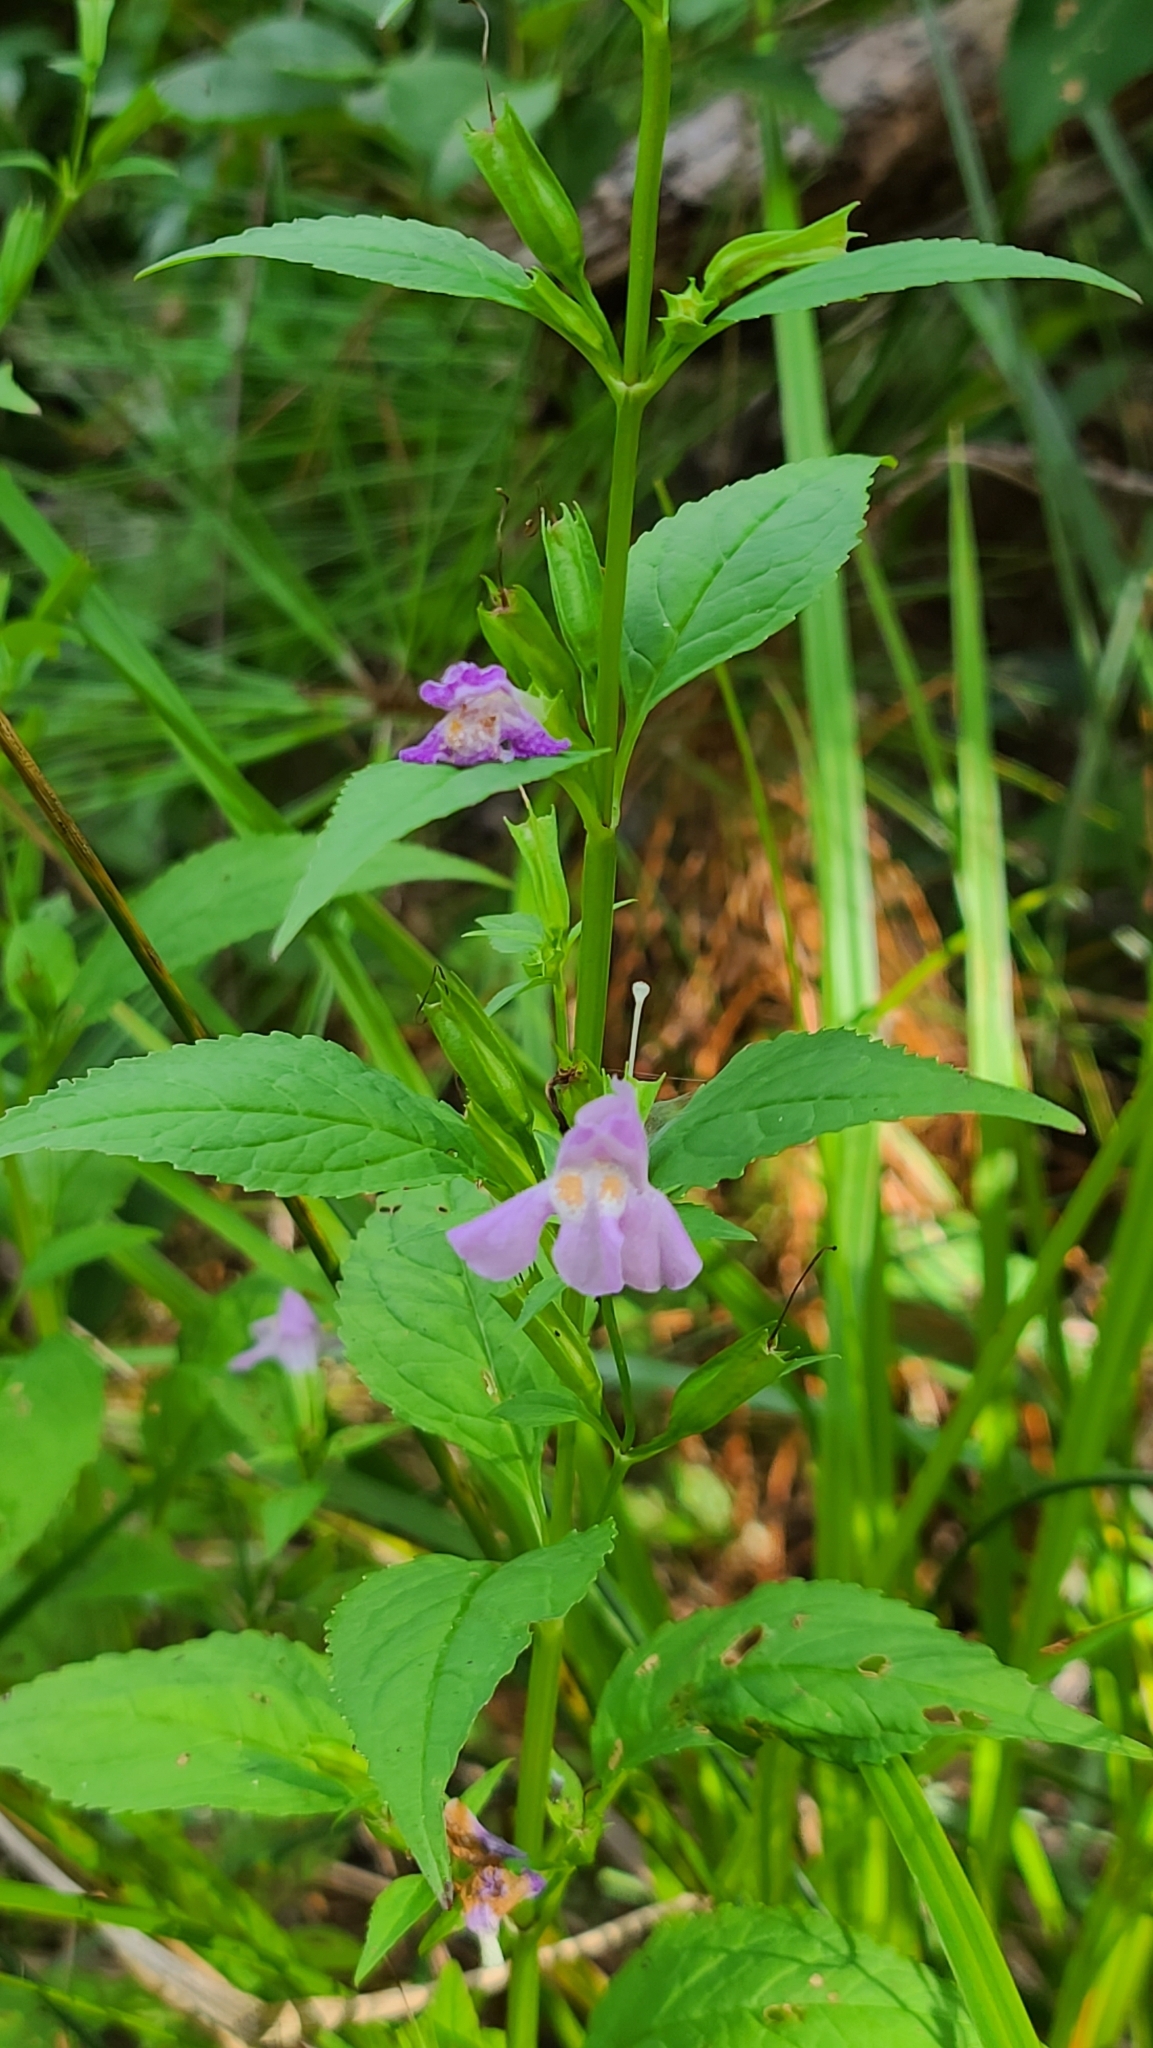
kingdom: Plantae
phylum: Tracheophyta
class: Magnoliopsida
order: Lamiales
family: Phrymaceae
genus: Mimulus
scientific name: Mimulus alatus
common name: Sharp-wing monkey-flower
